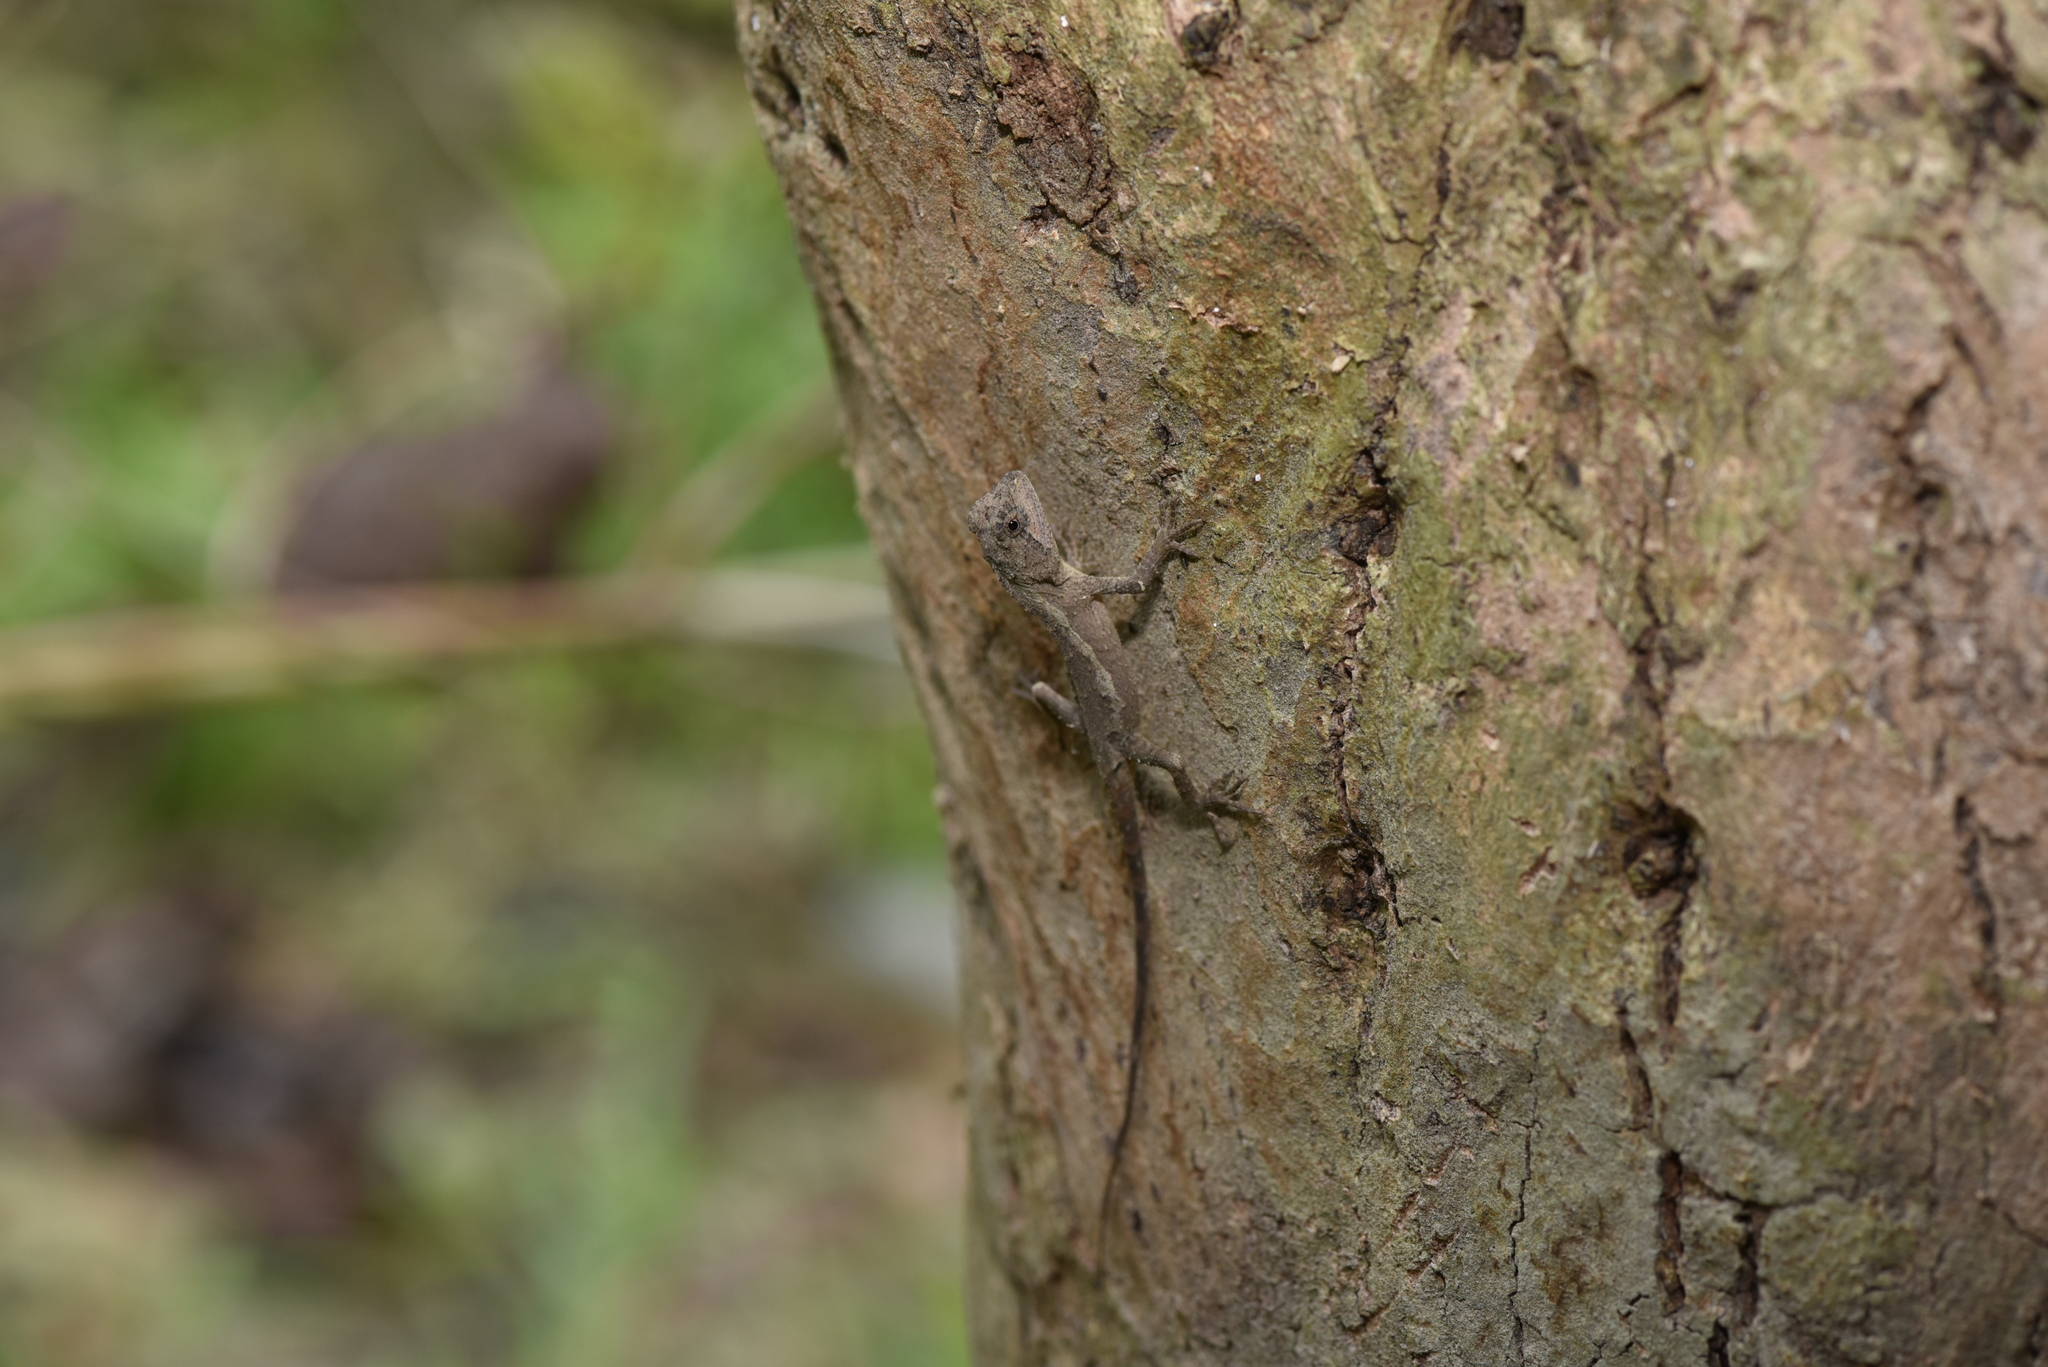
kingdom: Animalia
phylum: Chordata
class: Squamata
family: Agamidae
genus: Diploderma
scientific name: Diploderma swinhonis
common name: Taiwan japalure
